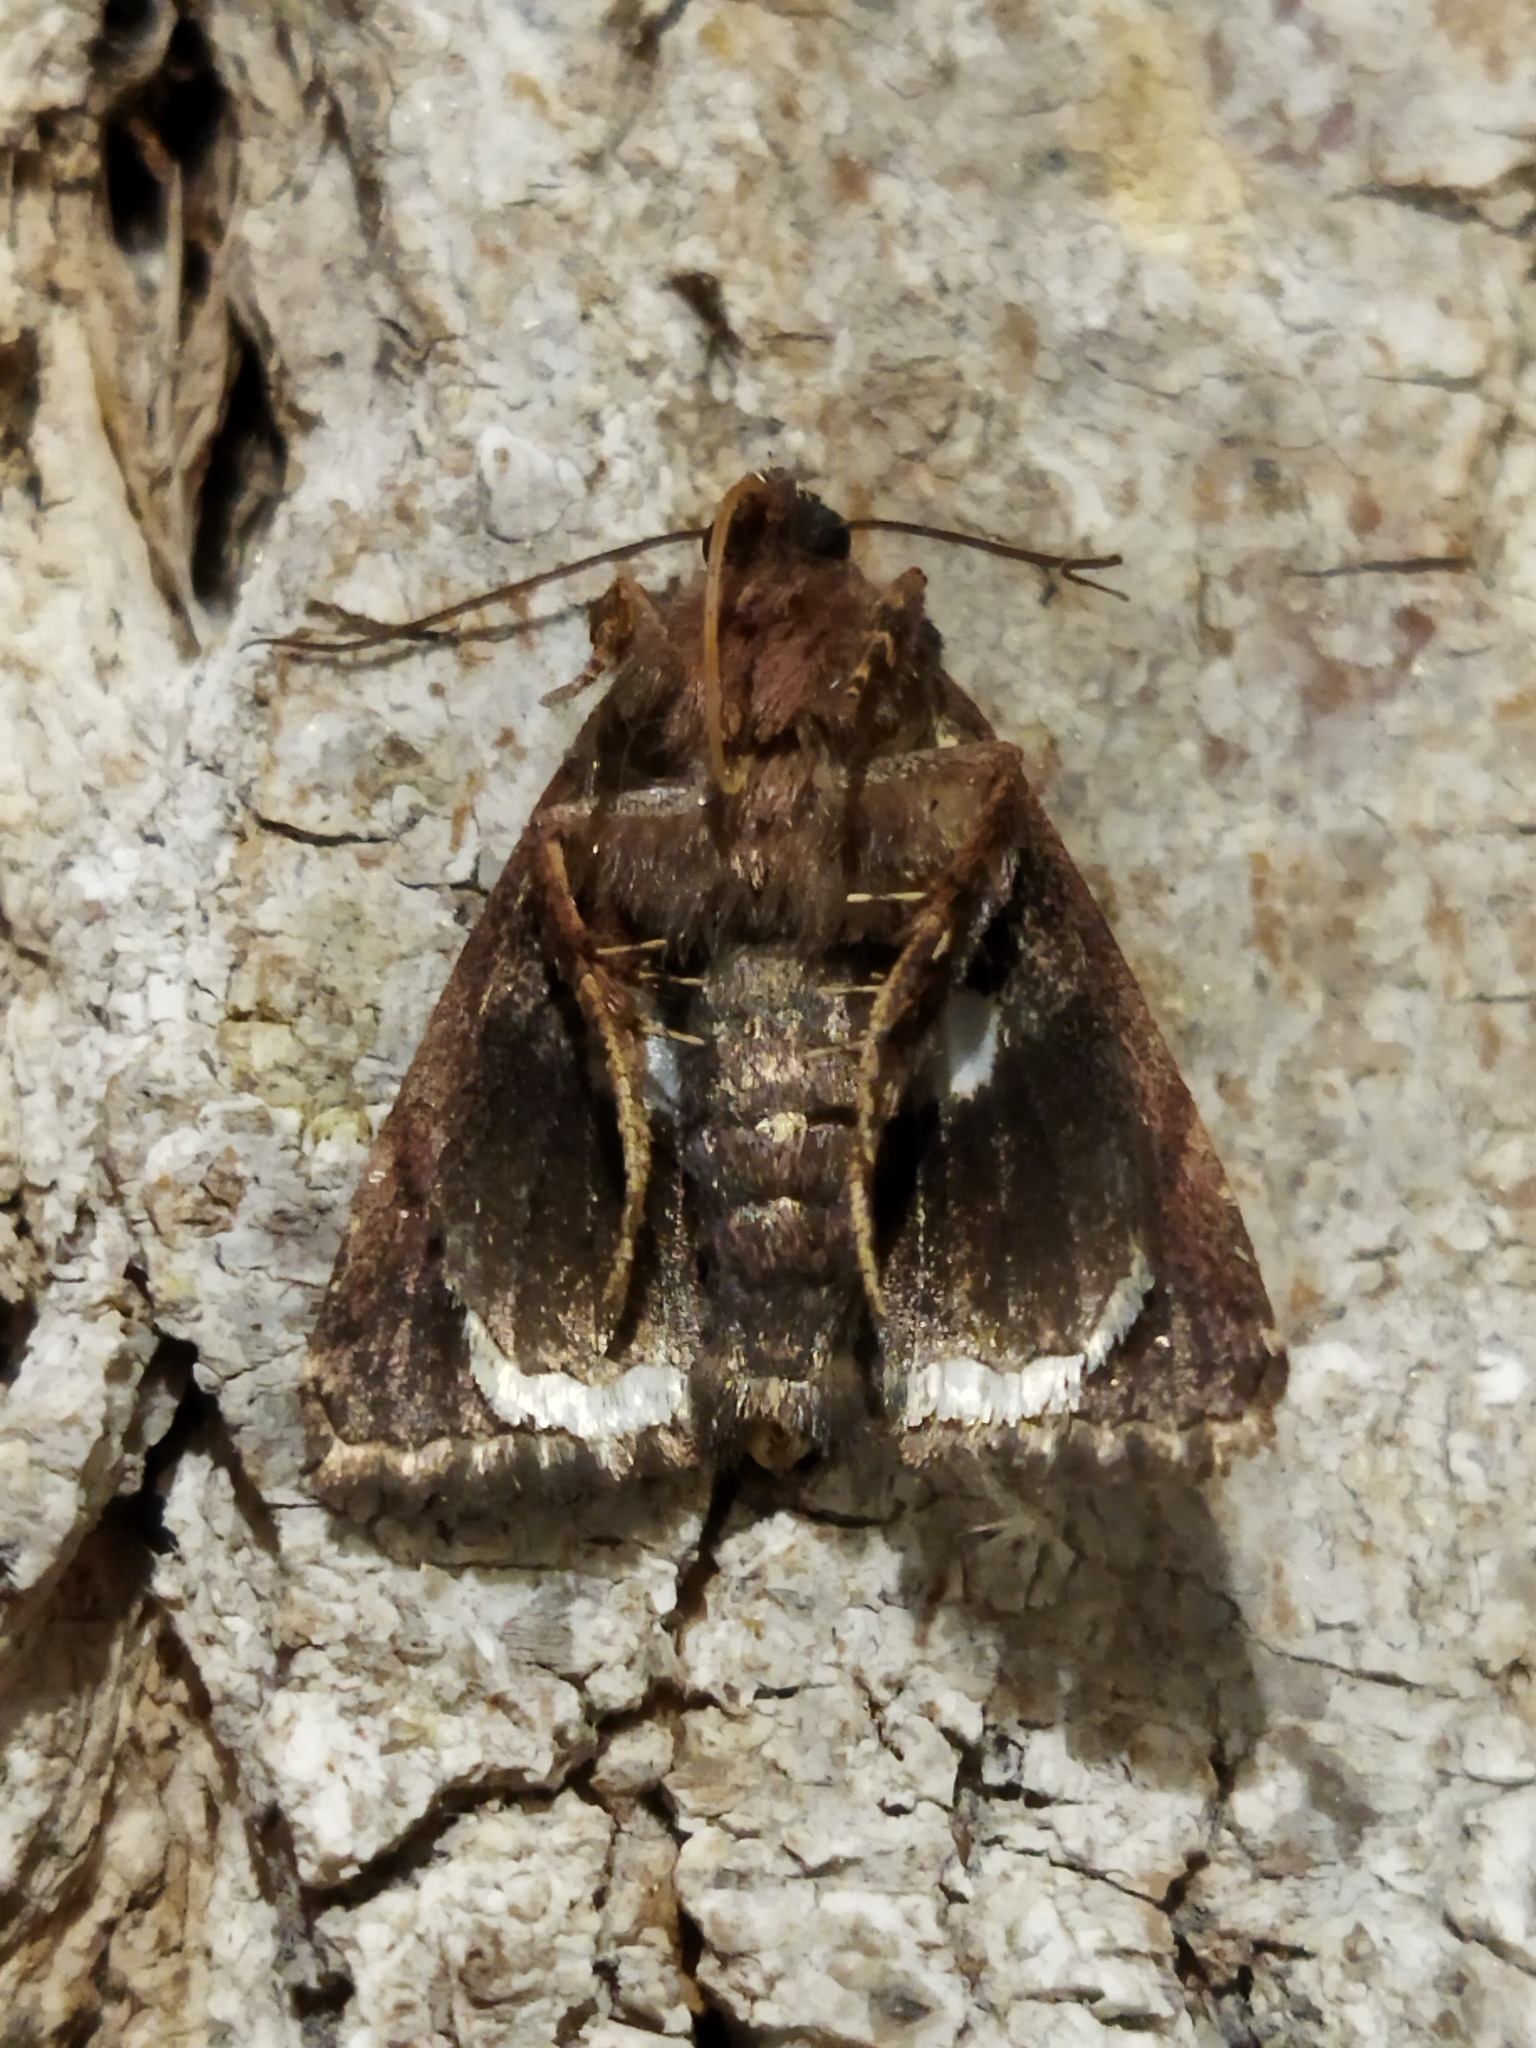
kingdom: Animalia
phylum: Arthropoda
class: Insecta
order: Lepidoptera
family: Noctuidae
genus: Aedia
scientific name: Aedia funesta
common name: The druid
